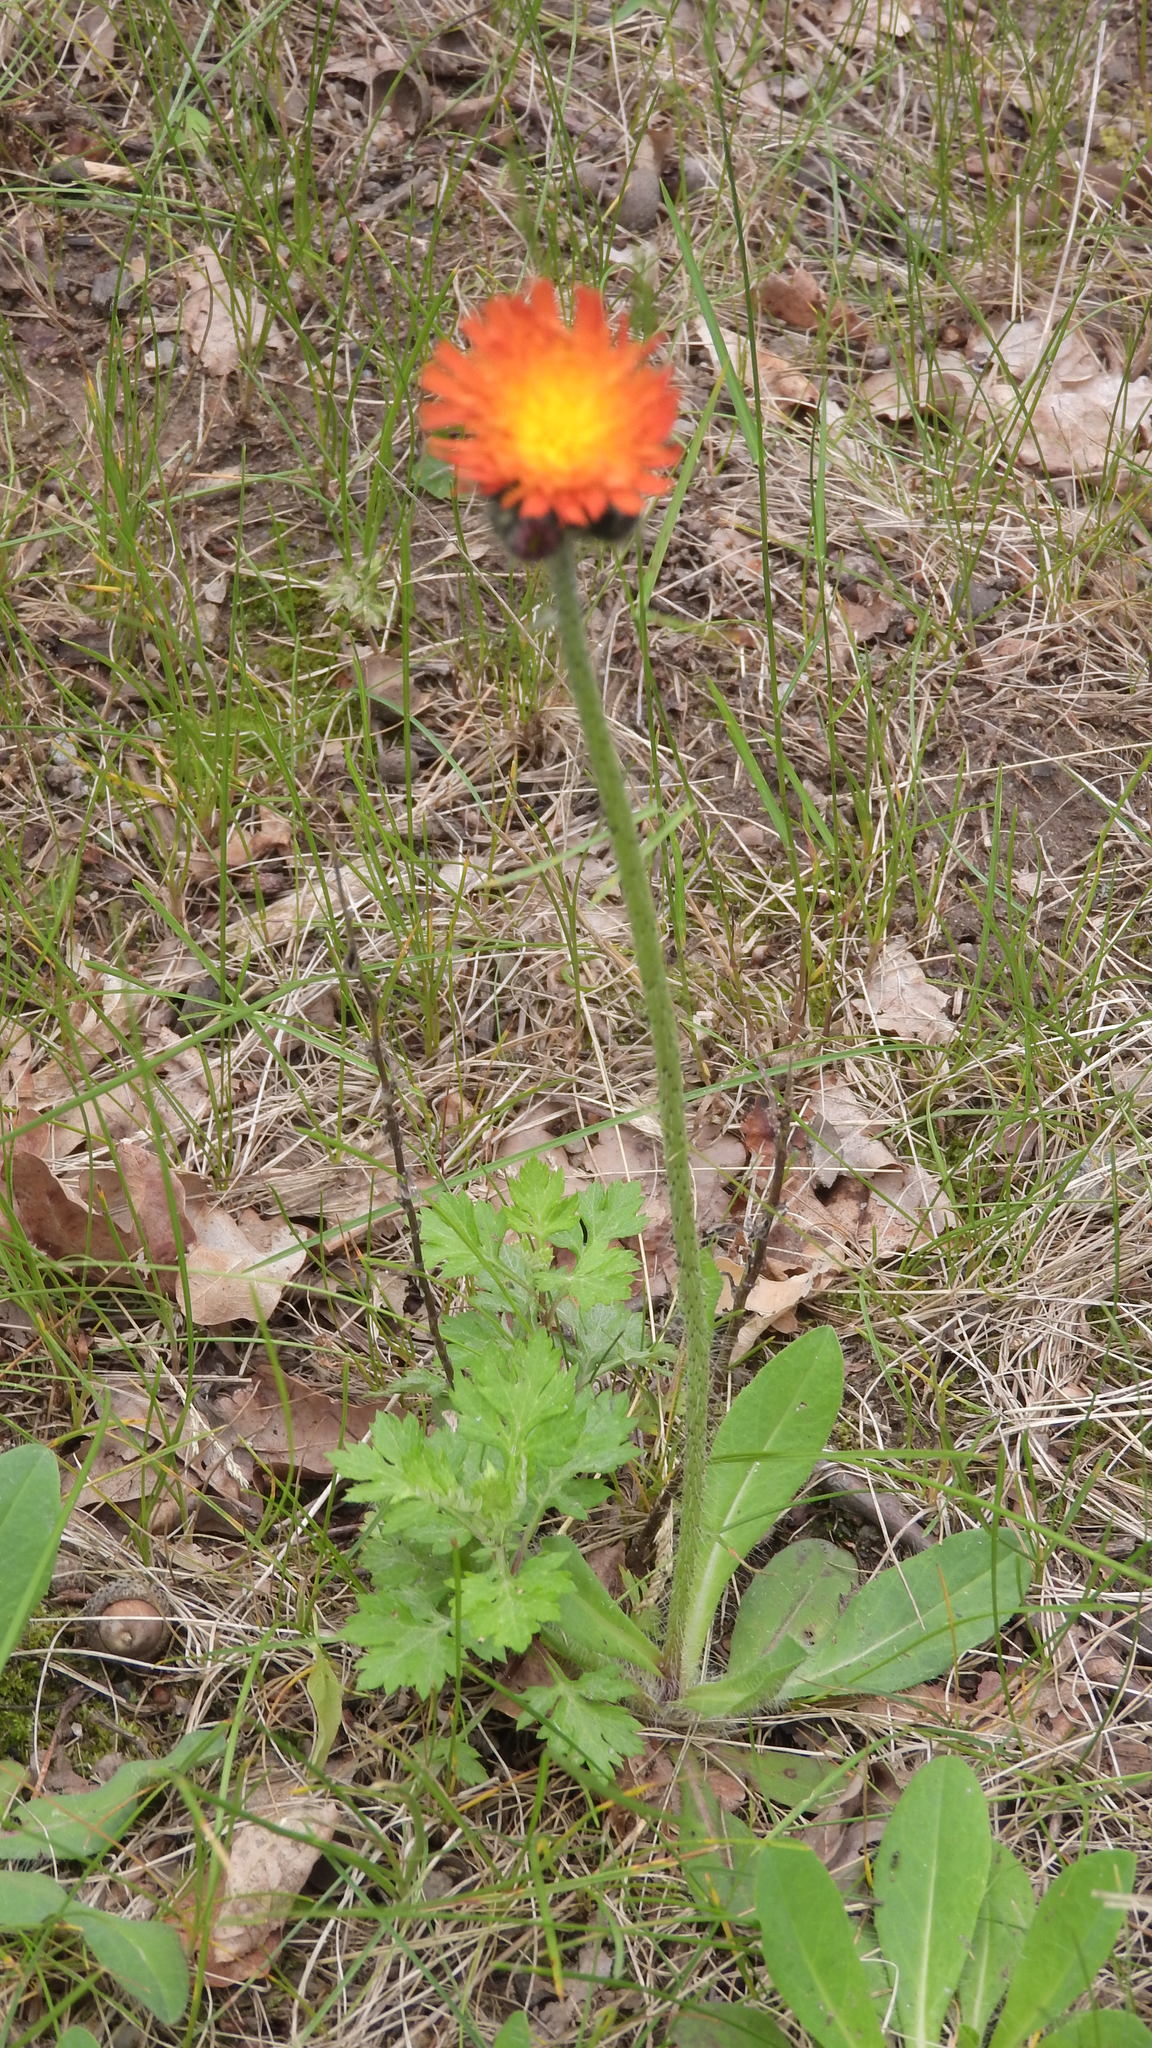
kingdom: Plantae
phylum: Tracheophyta
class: Magnoliopsida
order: Asterales
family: Asteraceae
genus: Pilosella
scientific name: Pilosella aurantiaca
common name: Fox-and-cubs
